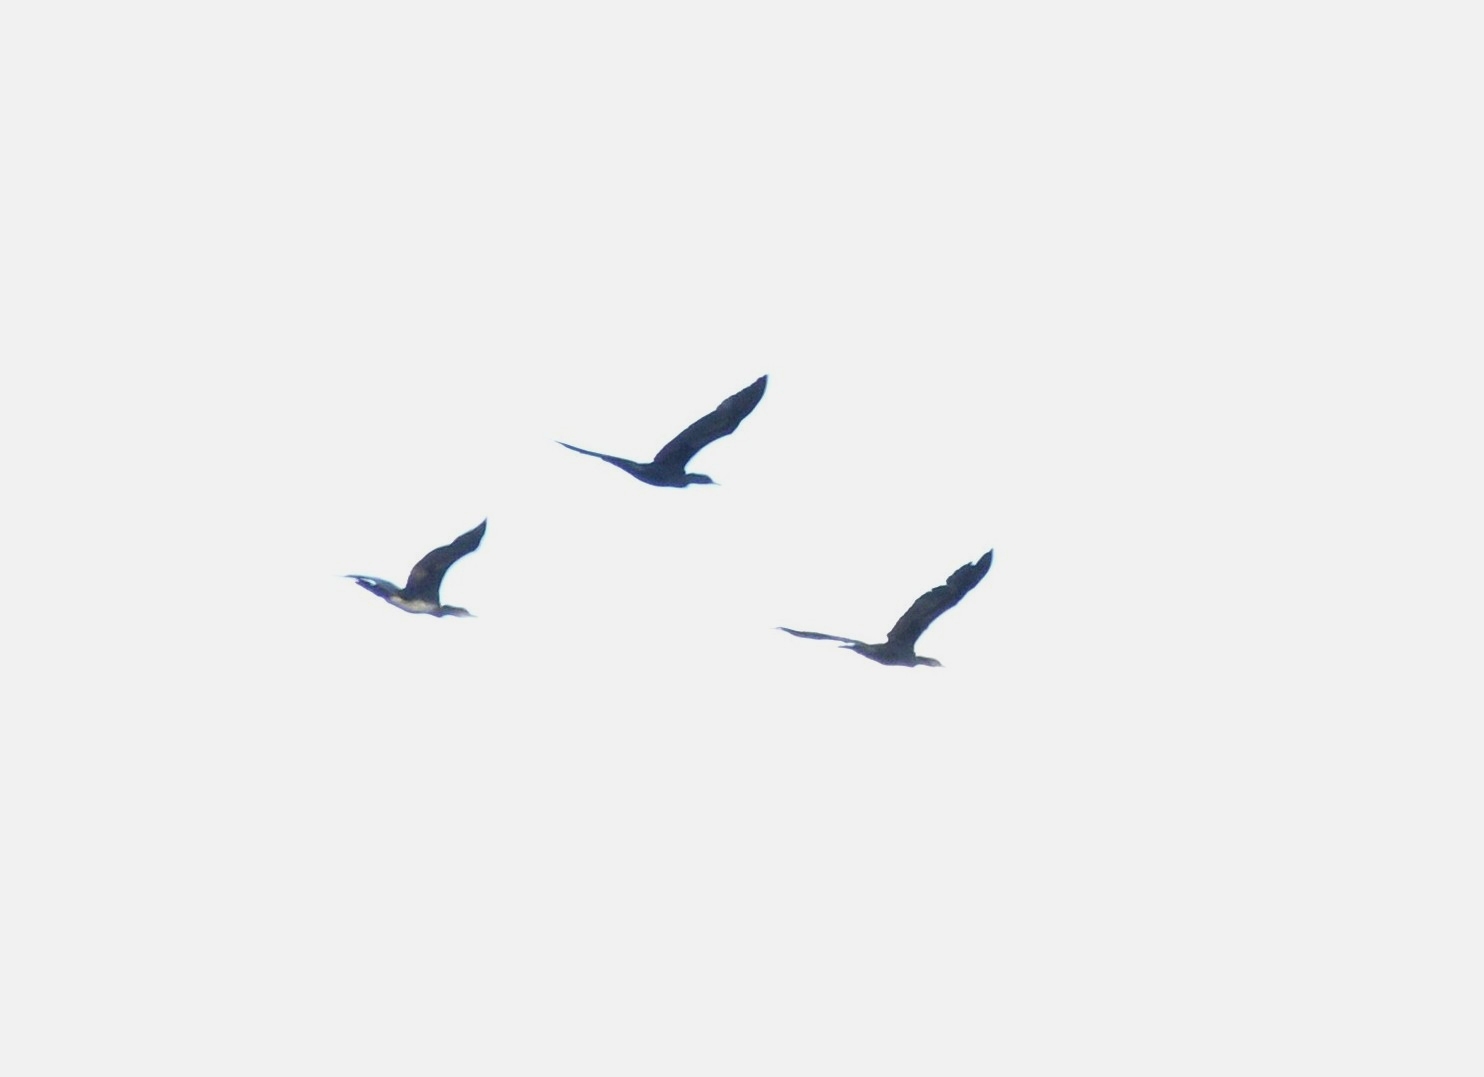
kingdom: Animalia
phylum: Chordata
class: Aves
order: Suliformes
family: Phalacrocoracidae
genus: Phalacrocorax
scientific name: Phalacrocorax fuscicollis
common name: Indian cormorant
